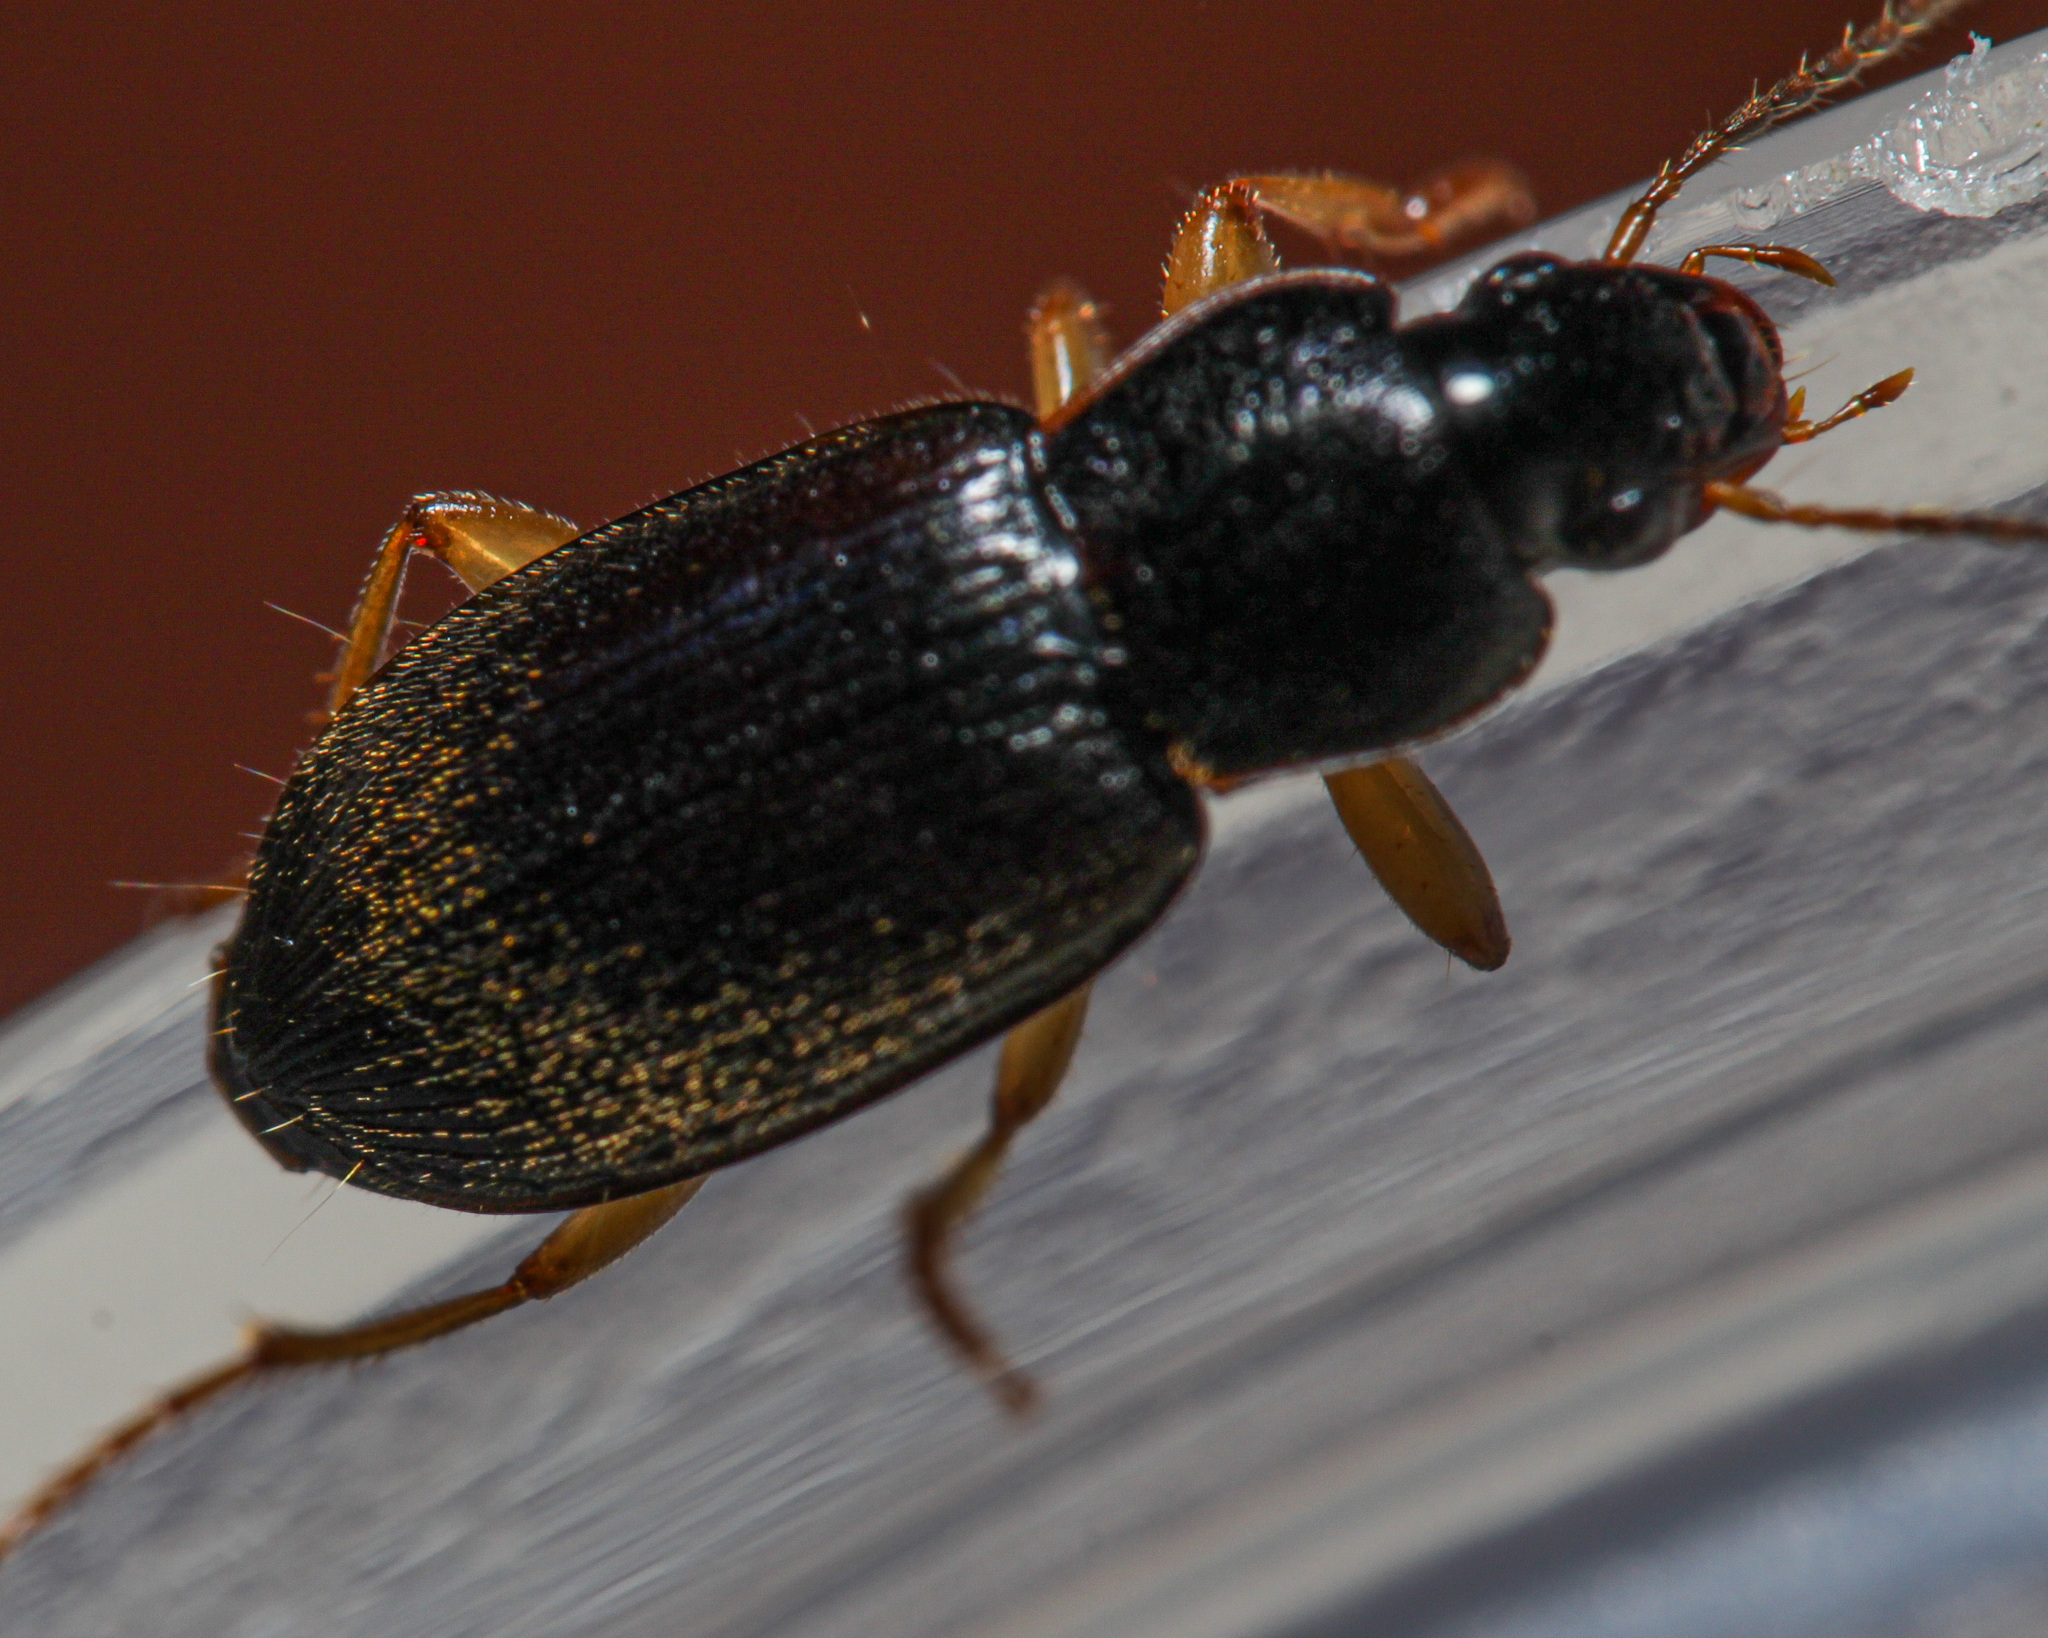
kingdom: Animalia
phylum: Arthropoda
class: Insecta
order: Coleoptera
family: Carabidae
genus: Harpalus
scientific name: Harpalus rufipes
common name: Strawberry harp ground beetle
